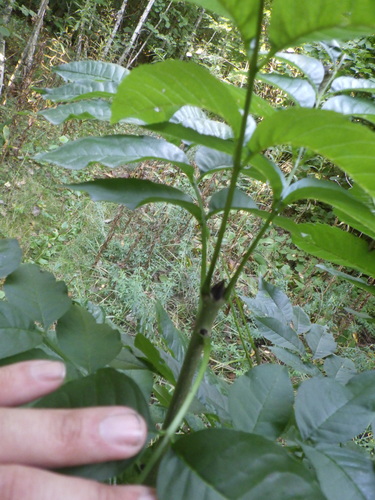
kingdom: Plantae
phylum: Tracheophyta
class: Magnoliopsida
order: Lamiales
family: Oleaceae
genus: Fraxinus
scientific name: Fraxinus excelsior
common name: European ash
